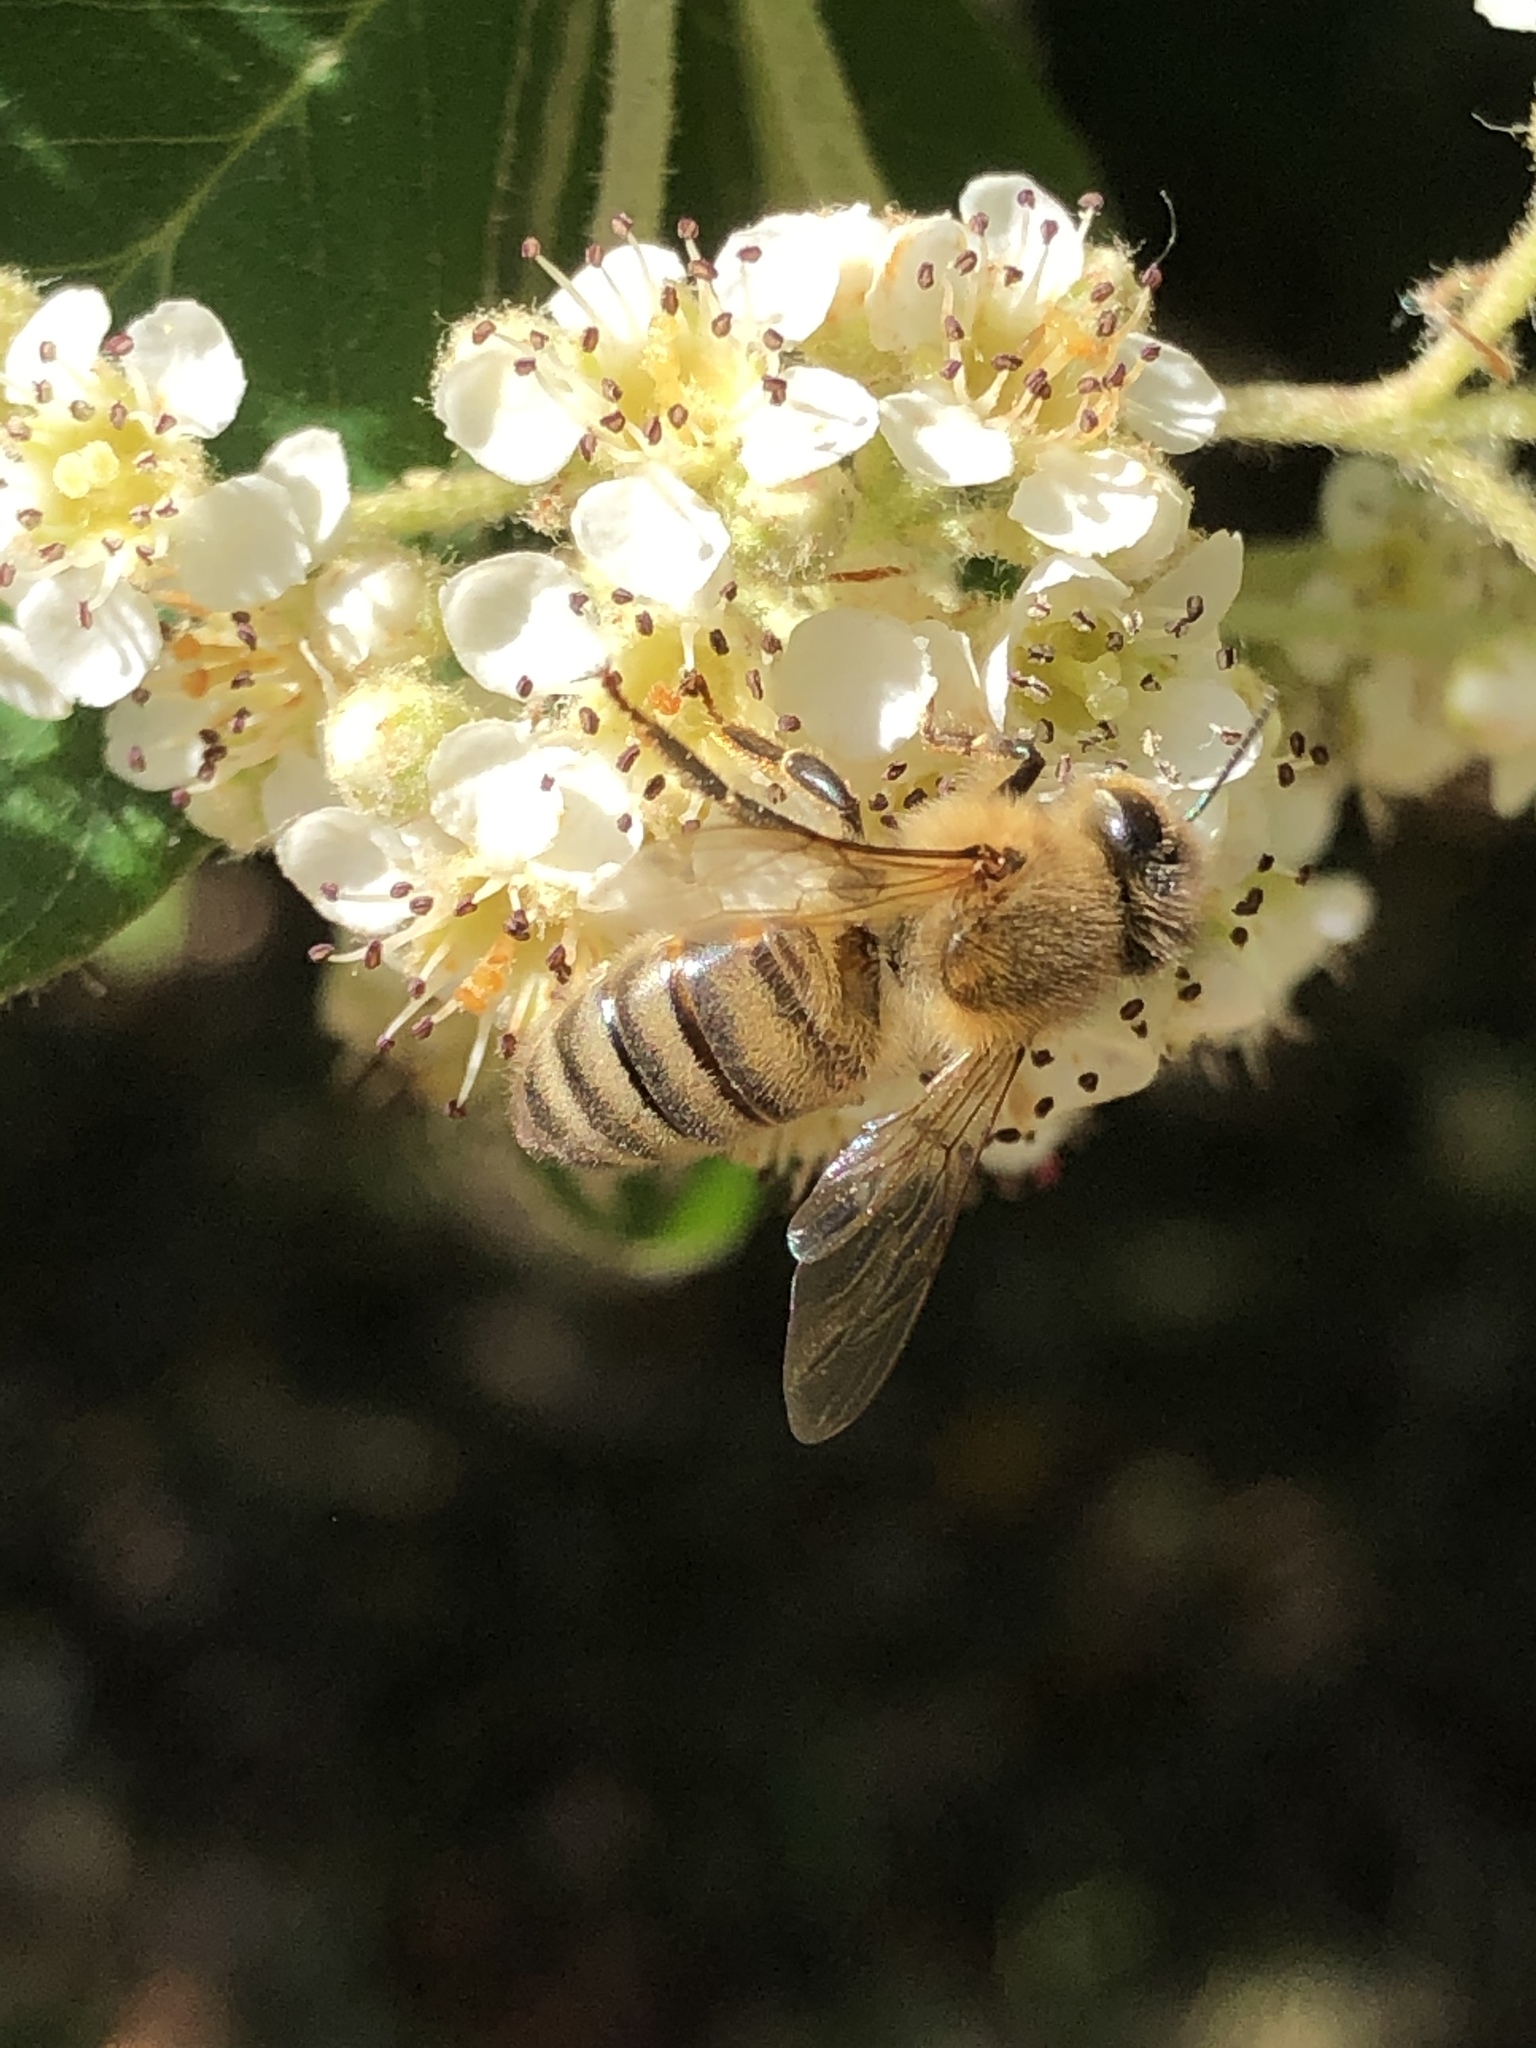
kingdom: Animalia
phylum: Arthropoda
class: Insecta
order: Hymenoptera
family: Apidae
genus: Apis
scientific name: Apis mellifera
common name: Honey bee
